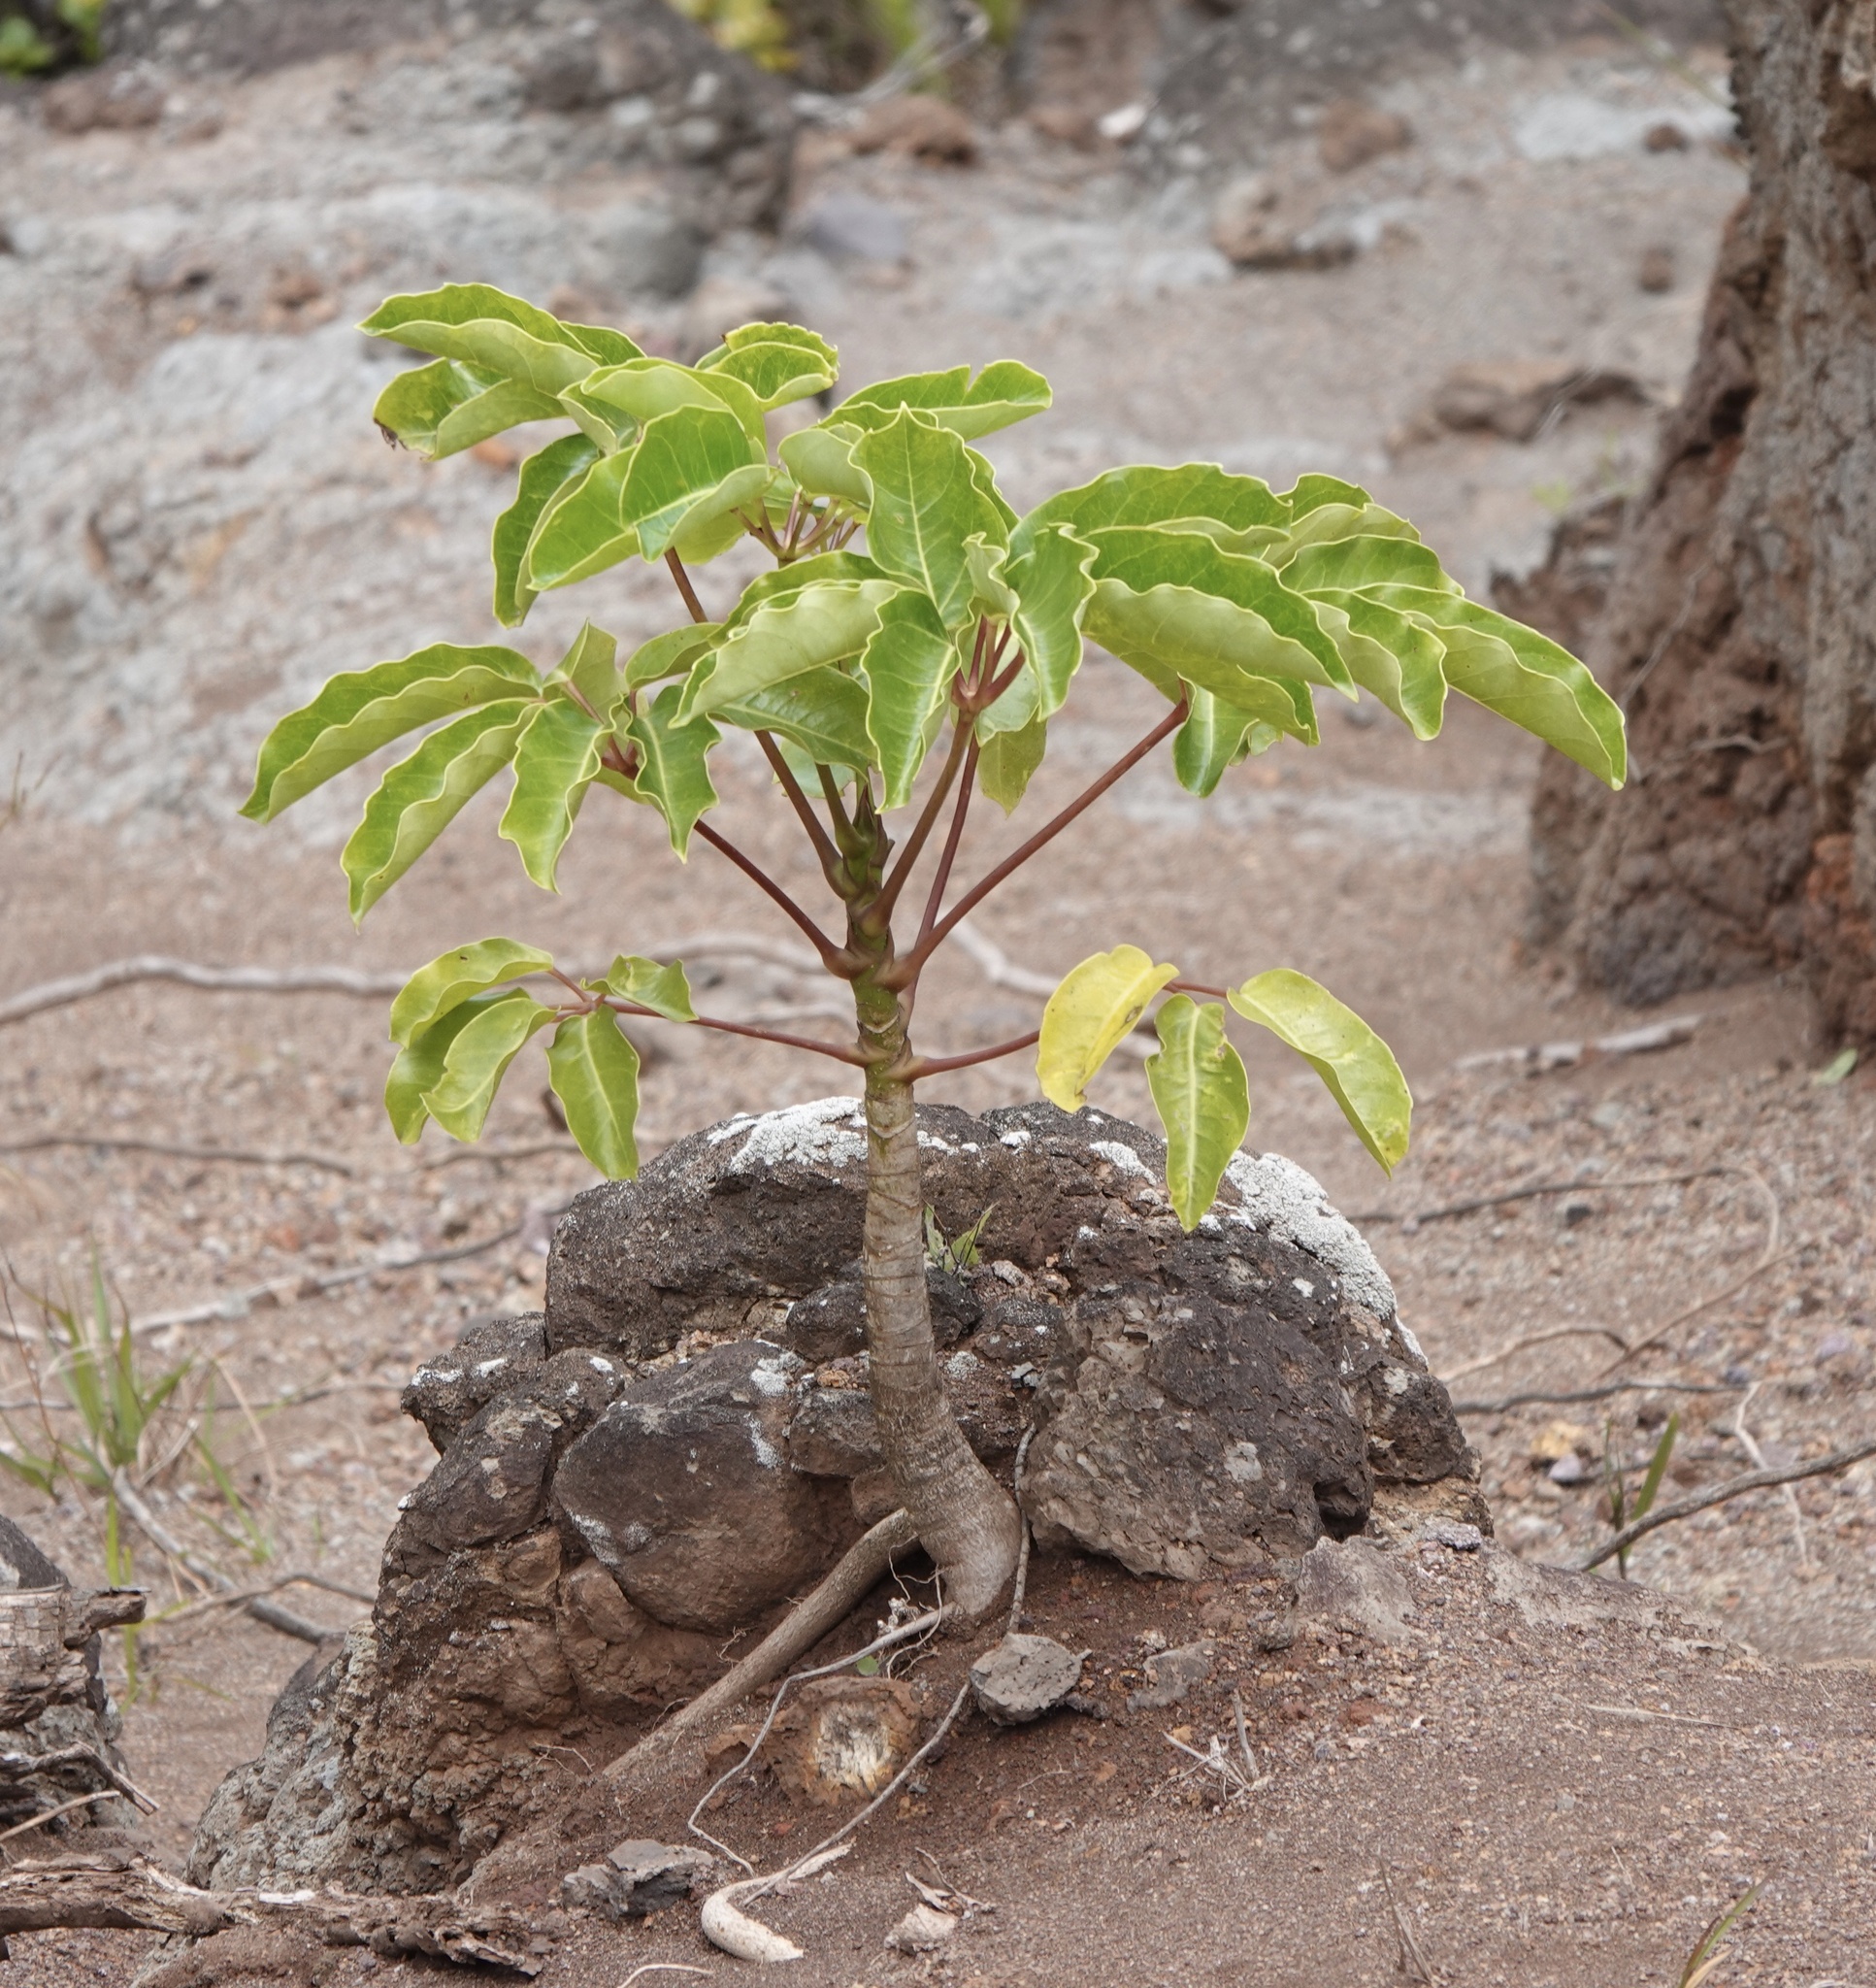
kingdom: Plantae
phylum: Tracheophyta
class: Magnoliopsida
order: Apiales
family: Araliaceae
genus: Heptapleurum
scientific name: Heptapleurum actinophyllum
